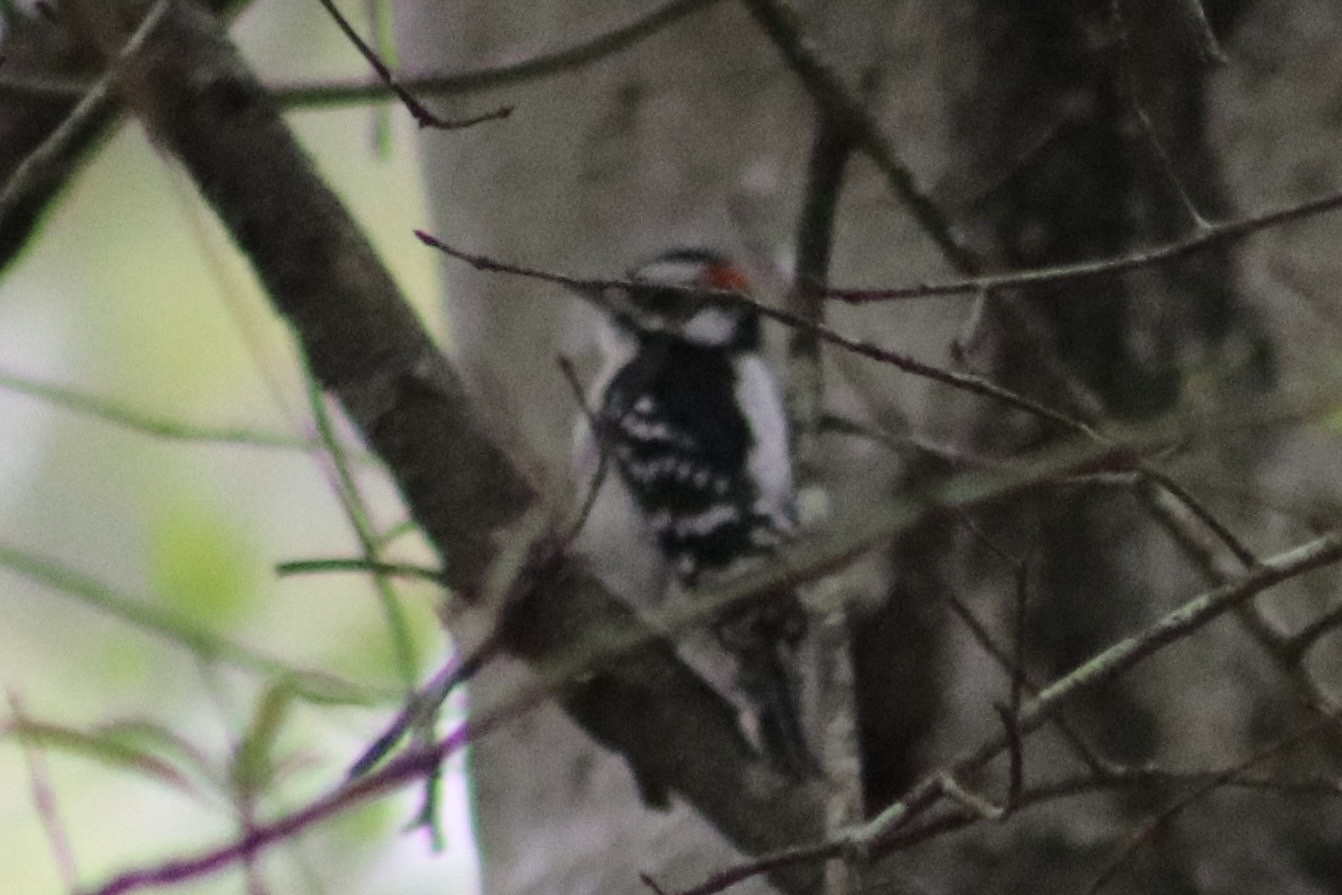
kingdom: Animalia
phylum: Chordata
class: Aves
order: Piciformes
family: Picidae
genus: Dryobates
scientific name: Dryobates pubescens
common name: Downy woodpecker
